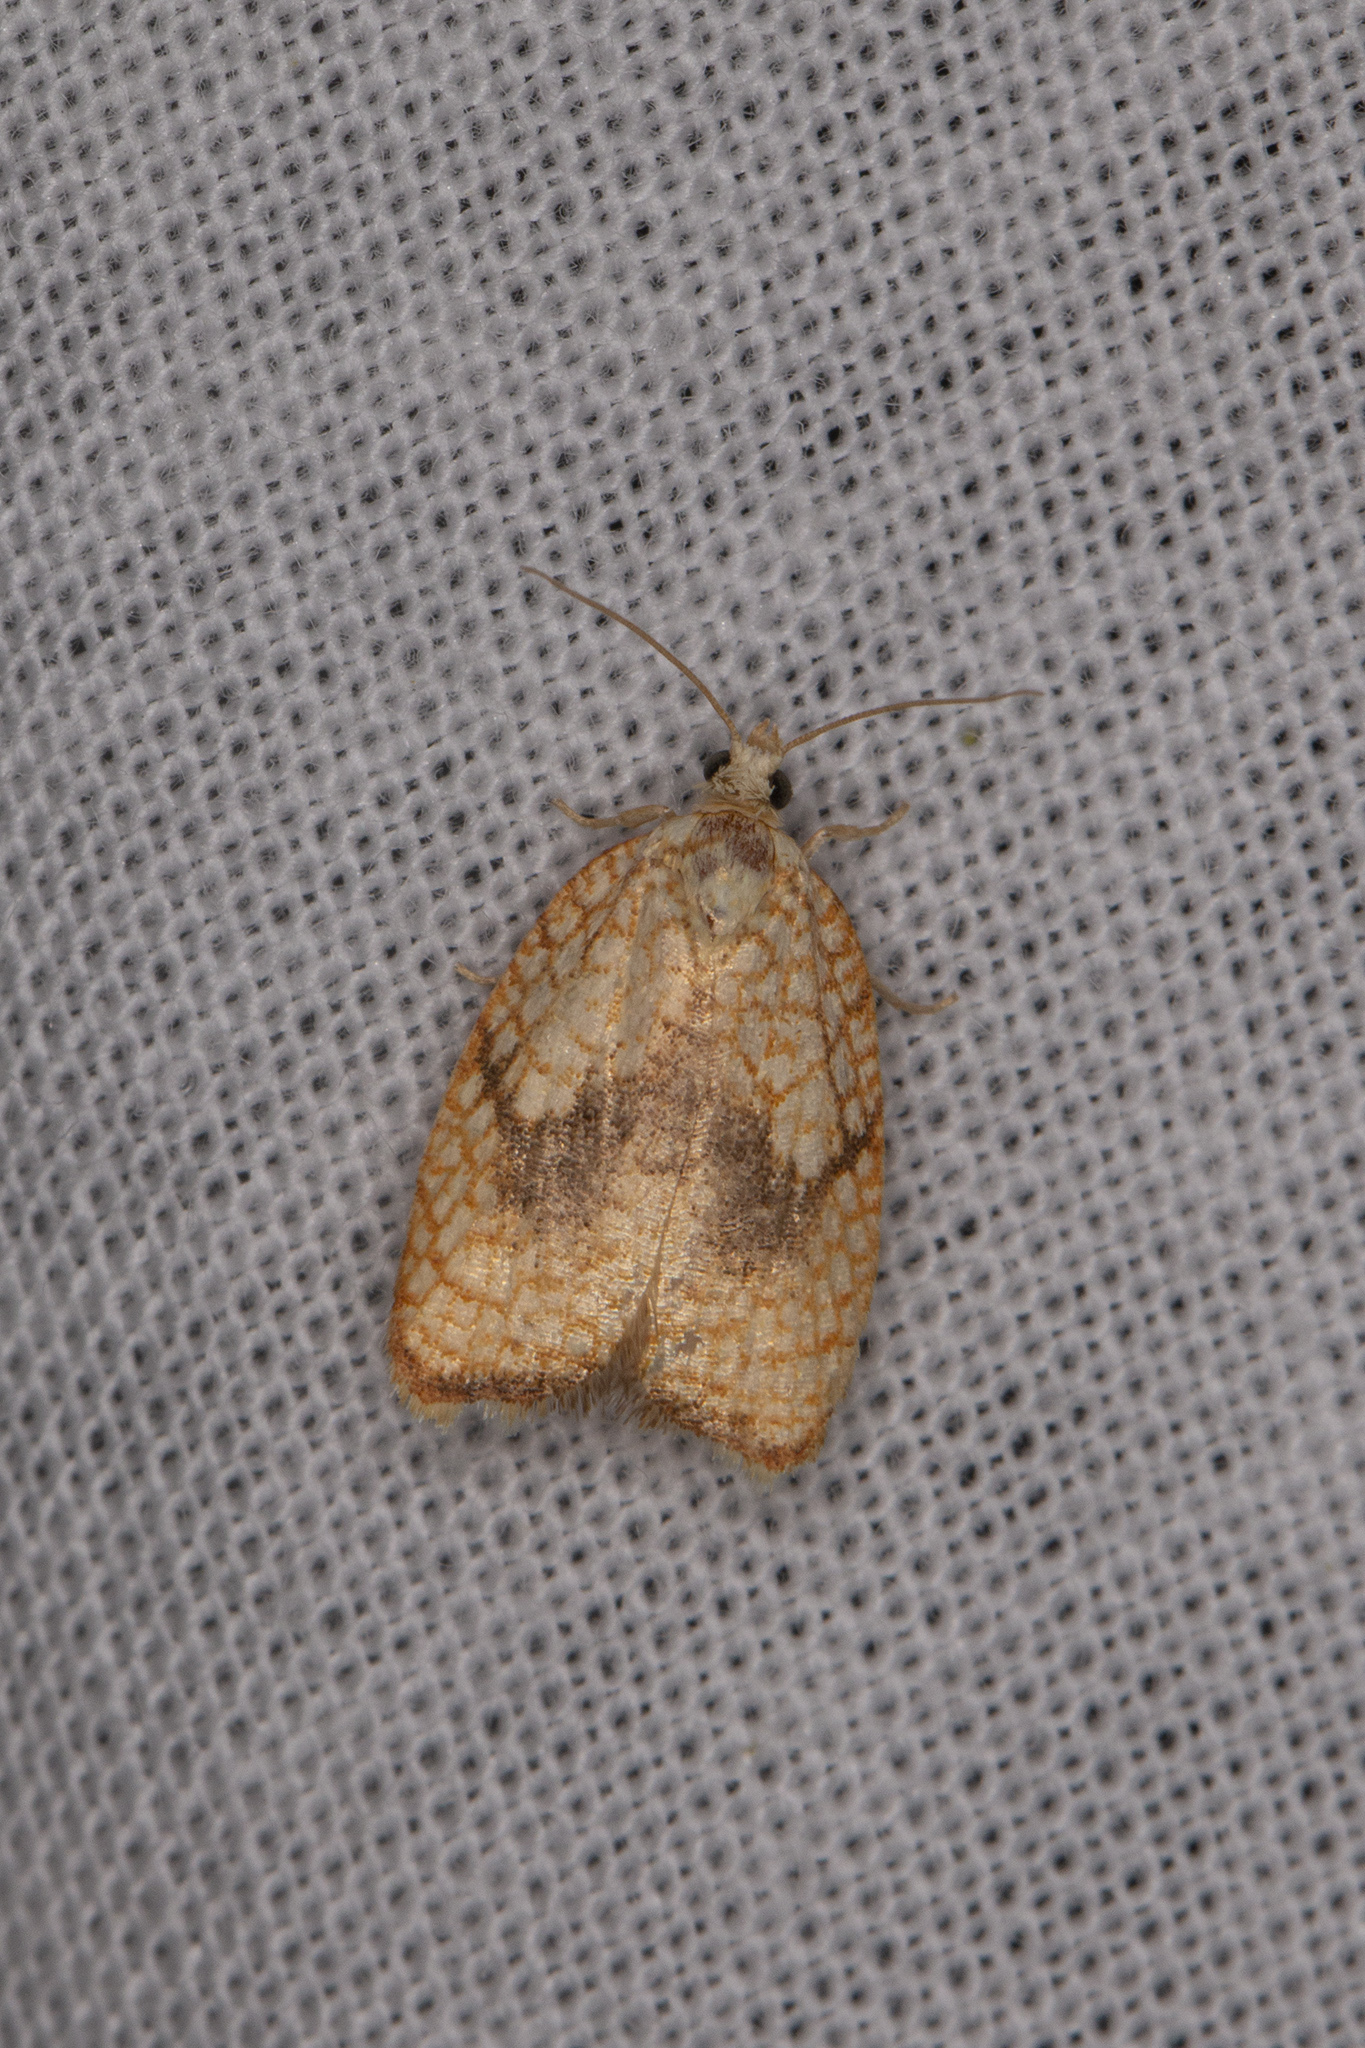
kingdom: Animalia
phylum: Arthropoda
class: Insecta
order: Lepidoptera
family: Tortricidae
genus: Acleris
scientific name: Acleris forsskaleana
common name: Maple button
